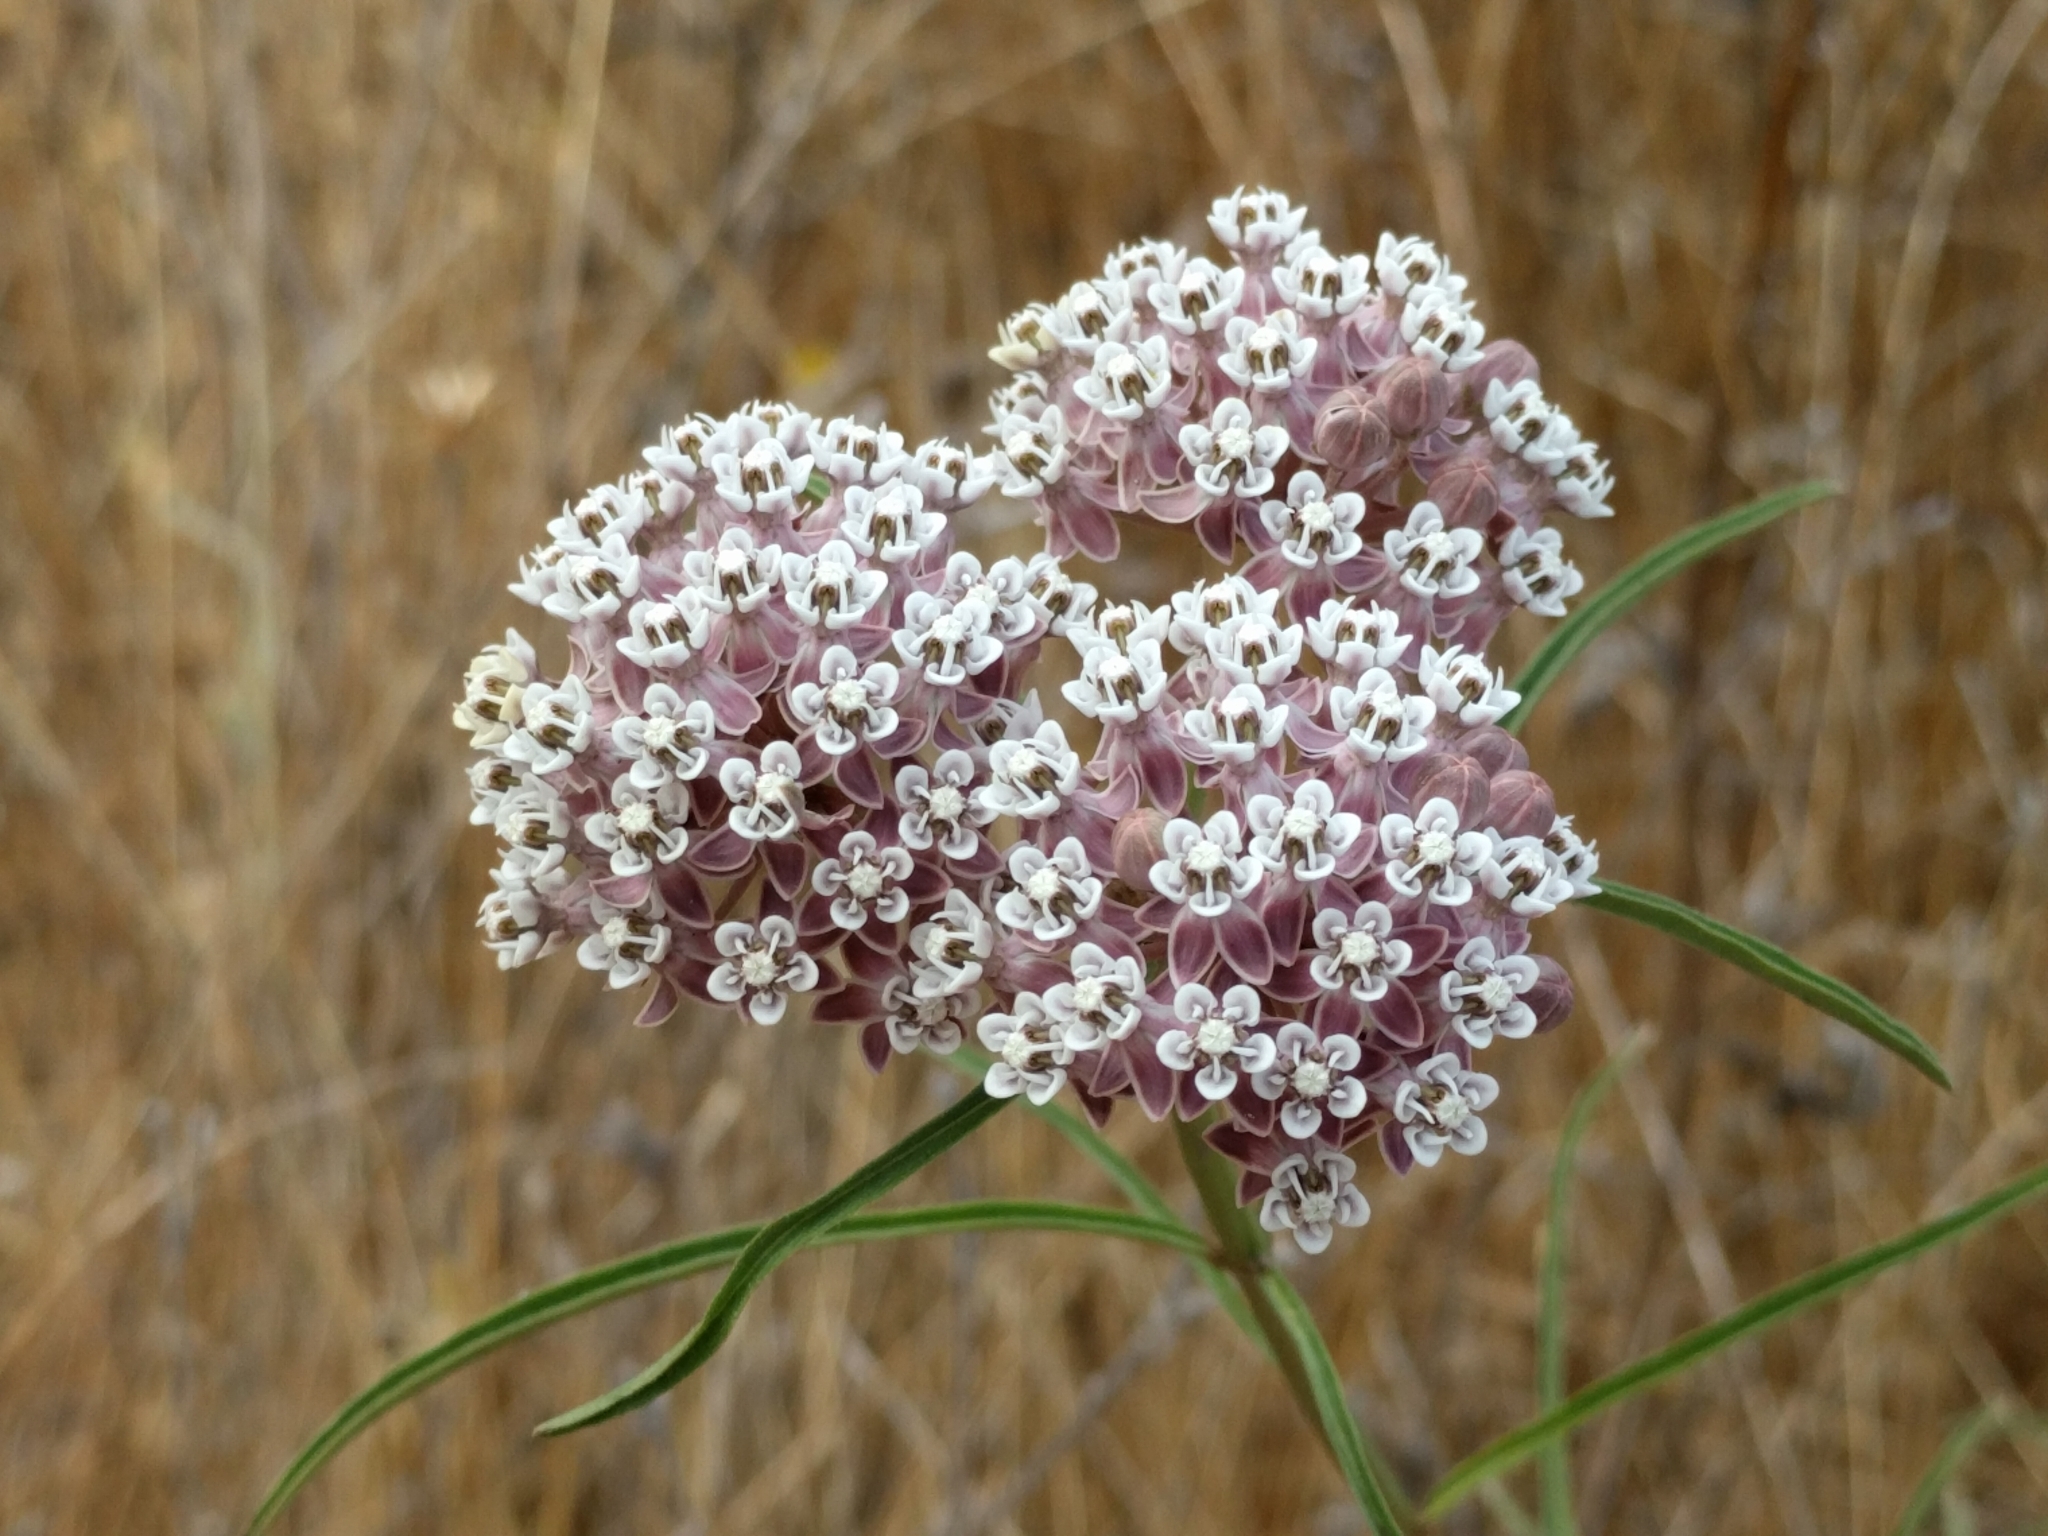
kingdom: Plantae
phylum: Tracheophyta
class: Magnoliopsida
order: Gentianales
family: Apocynaceae
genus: Asclepias
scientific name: Asclepias fascicularis
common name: Mexican milkweed
